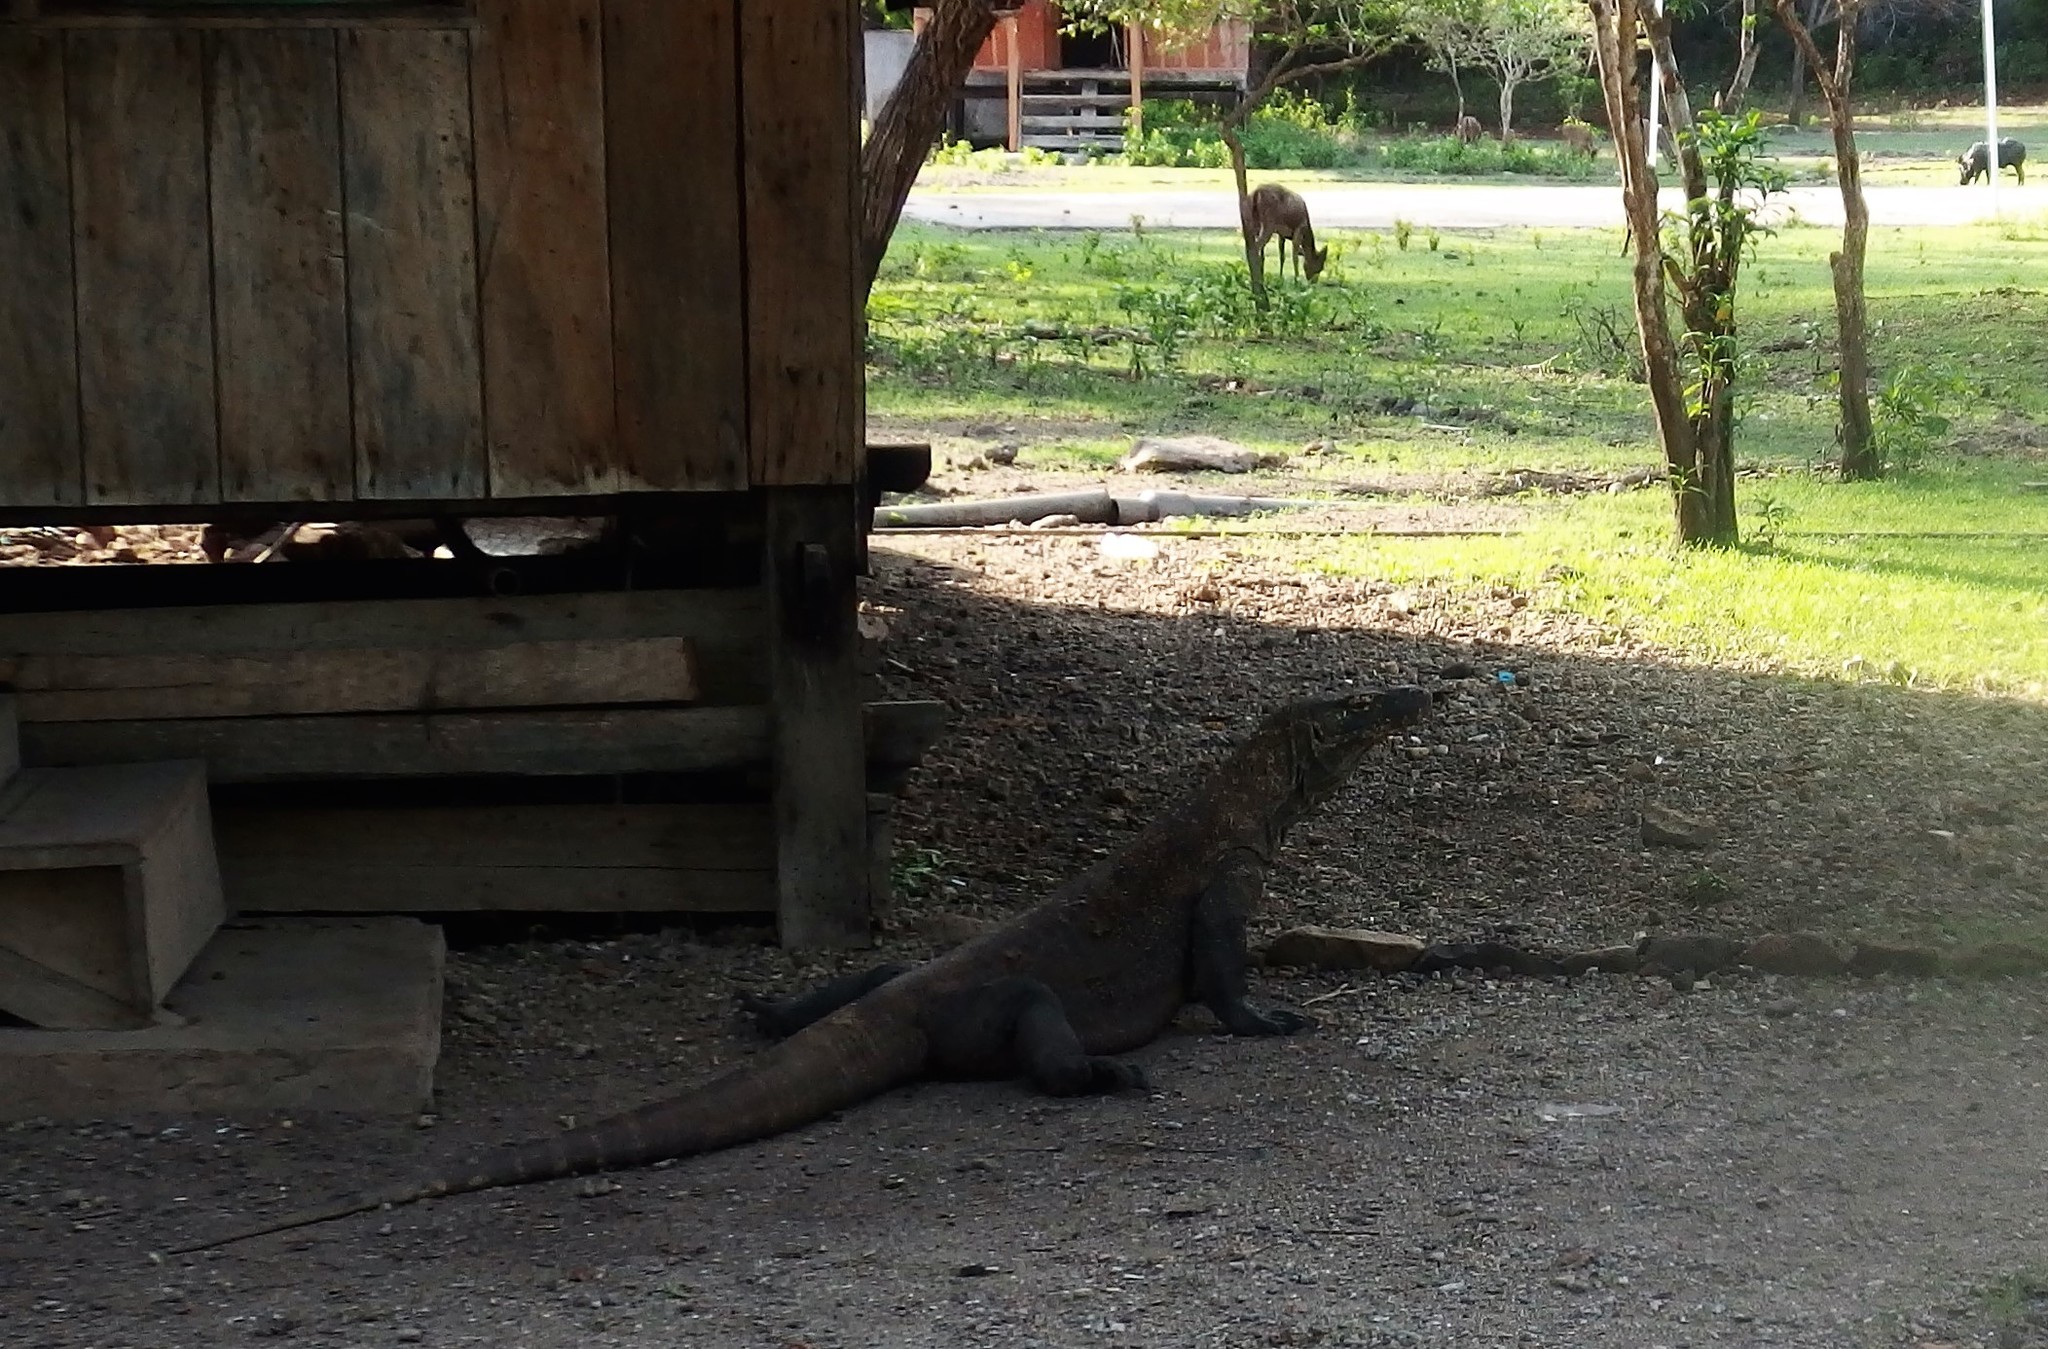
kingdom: Animalia
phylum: Chordata
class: Squamata
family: Varanidae
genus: Varanus
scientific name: Varanus komodoensis
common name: Komodo dragon
